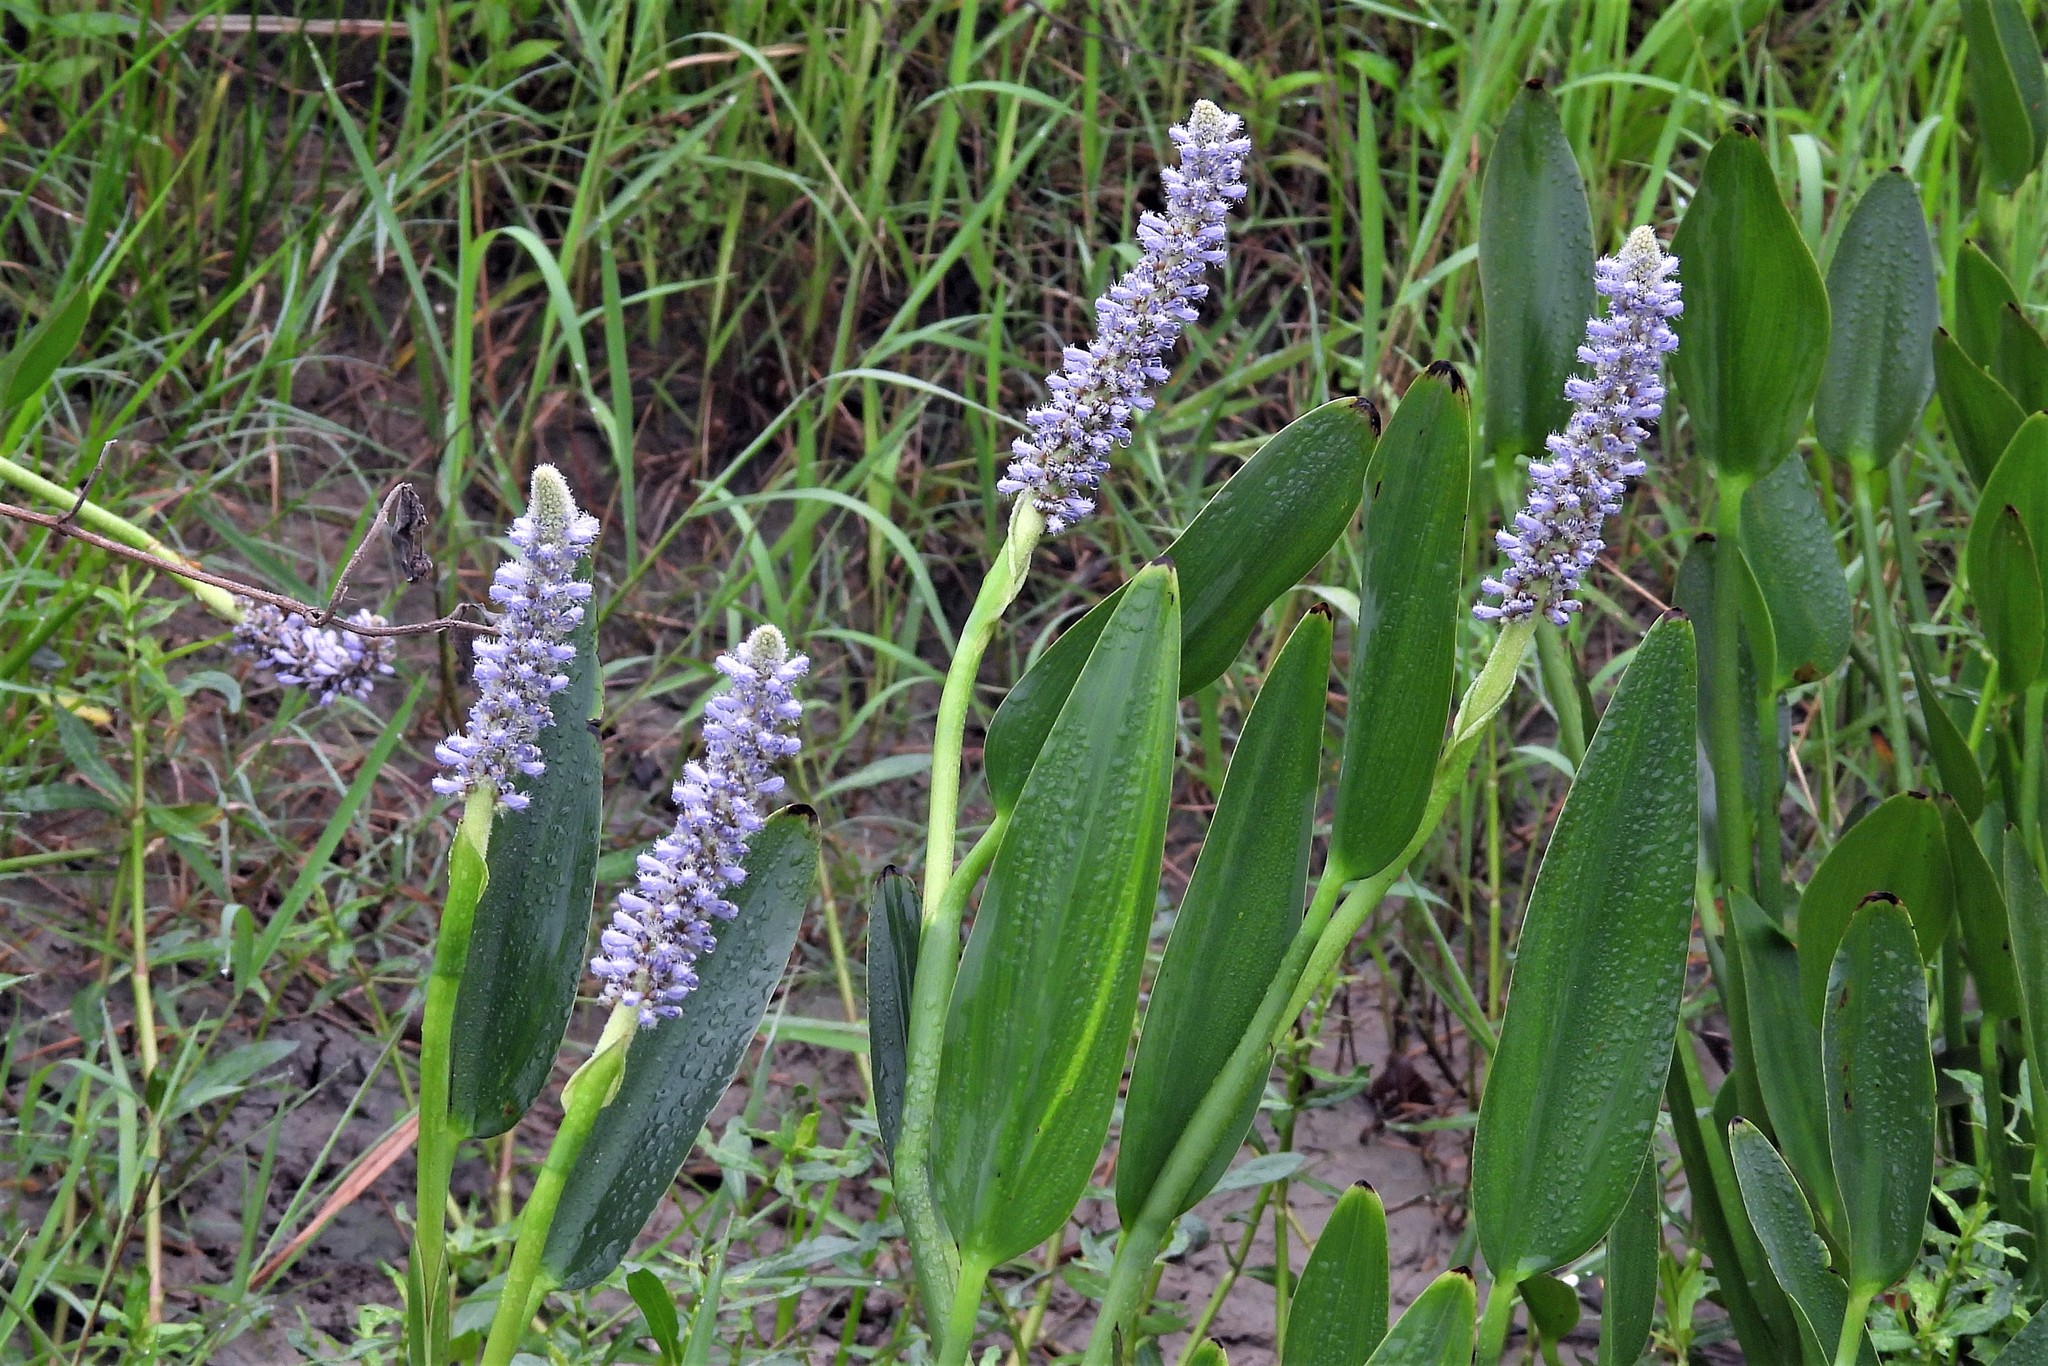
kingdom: Plantae
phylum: Tracheophyta
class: Liliopsida
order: Commelinales
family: Pontederiaceae
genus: Pontederia
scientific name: Pontederia cordata
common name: Pickerelweed
